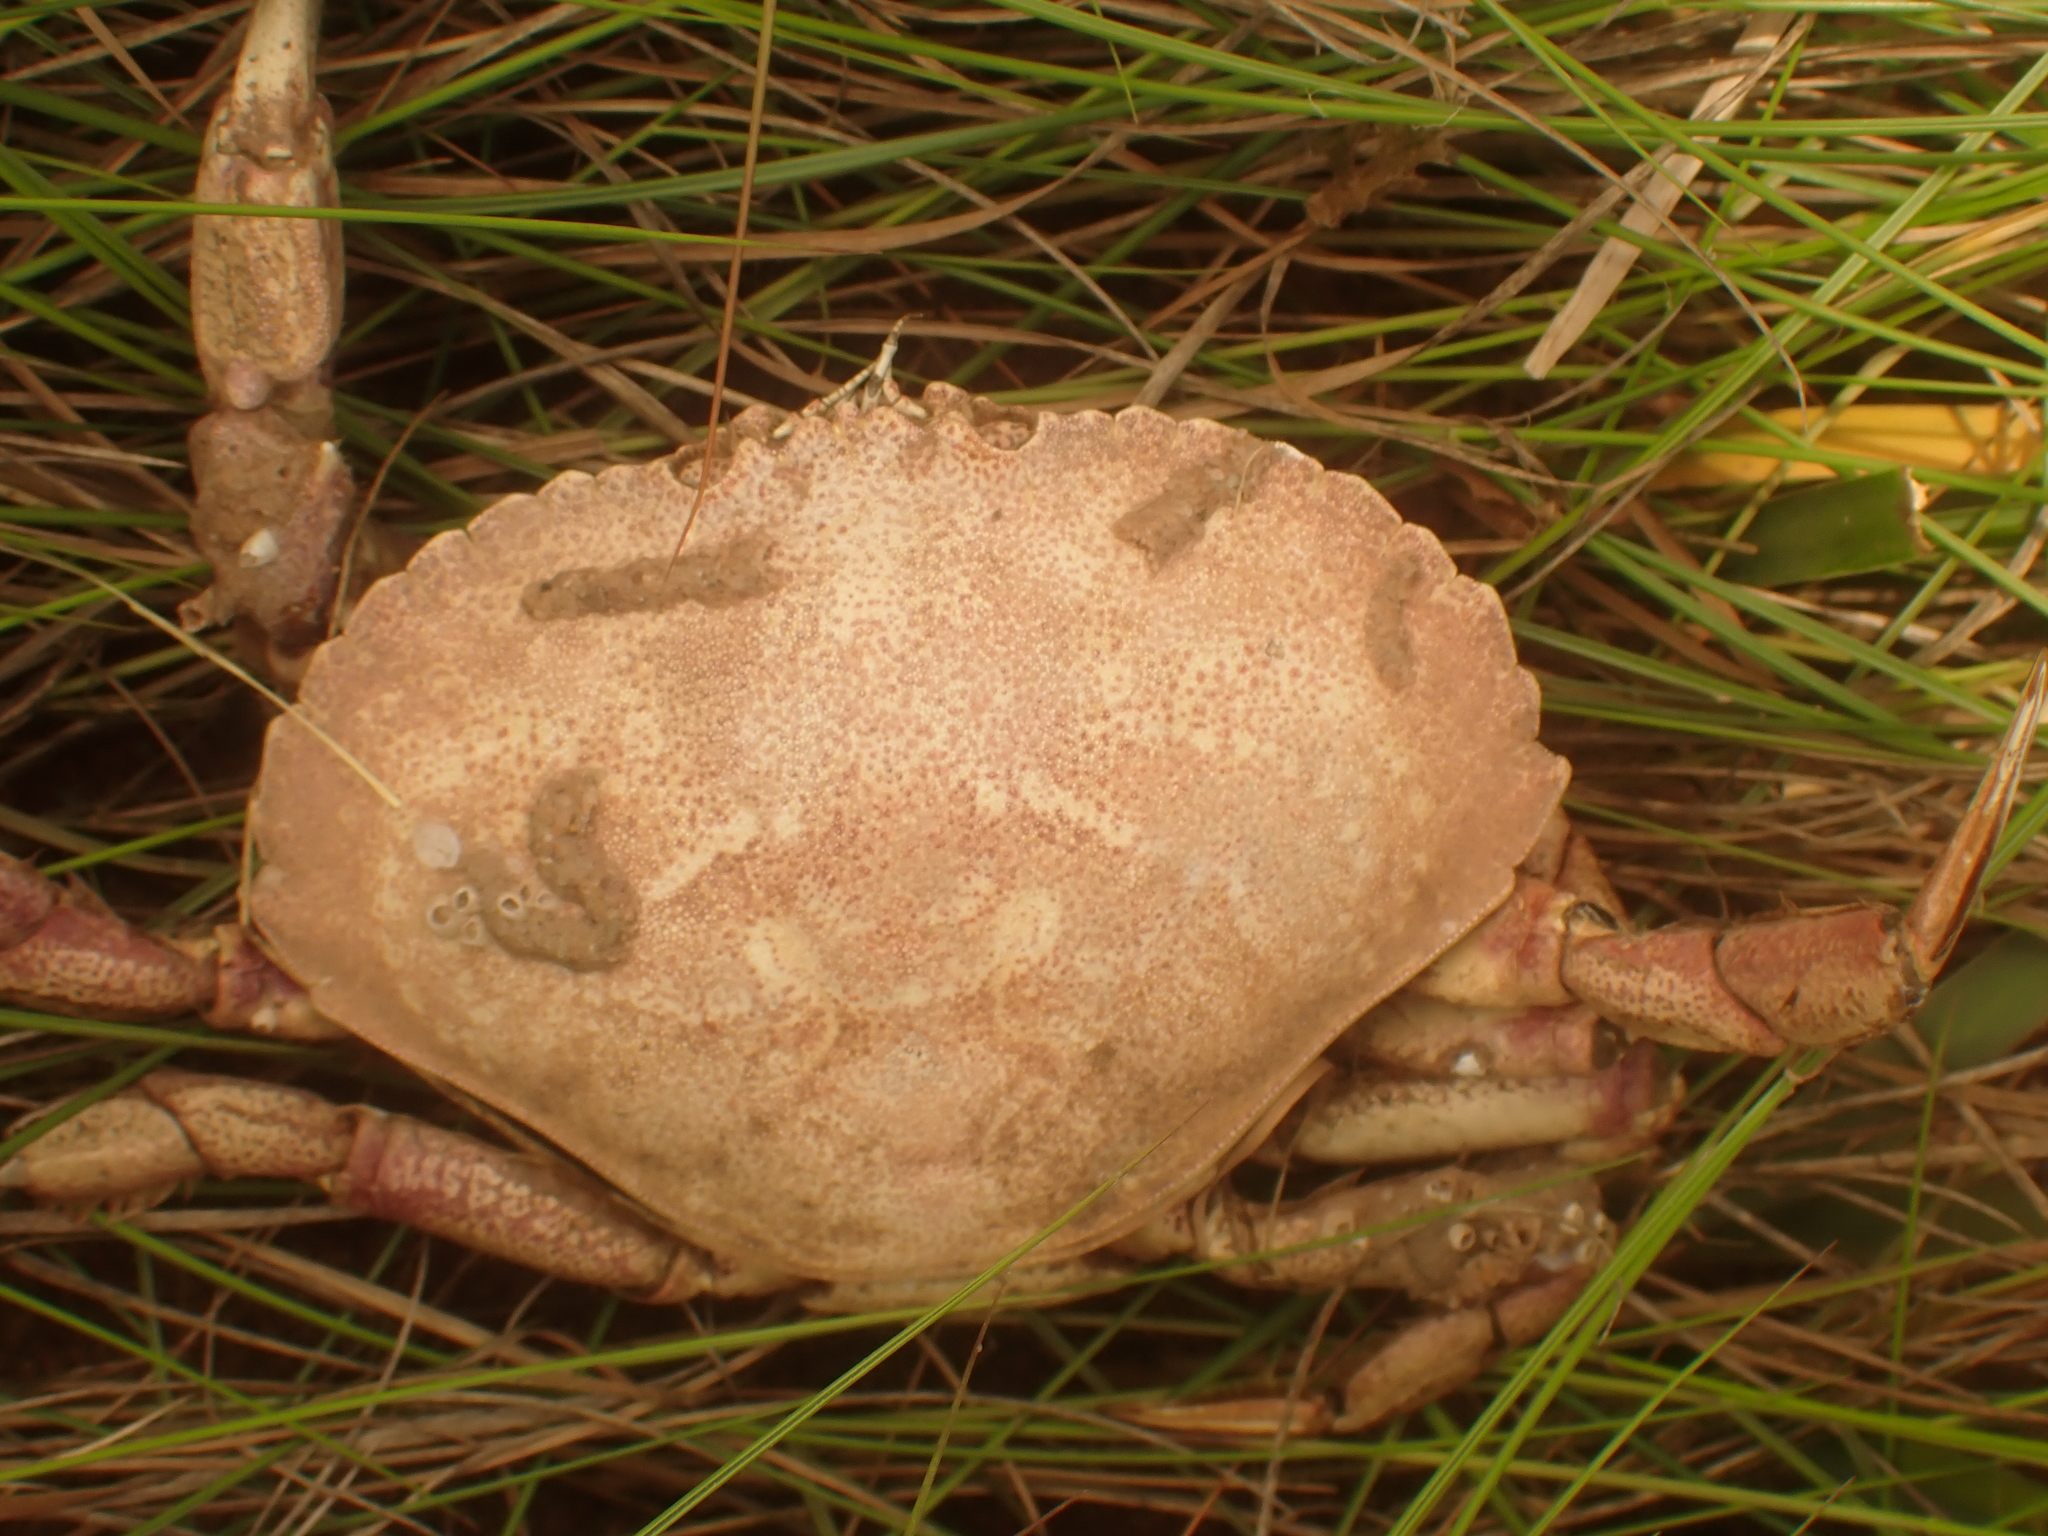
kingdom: Animalia
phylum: Arthropoda
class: Malacostraca
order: Decapoda
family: Cancridae
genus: Cancer
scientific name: Cancer irroratus
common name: Atlantic rock crab
